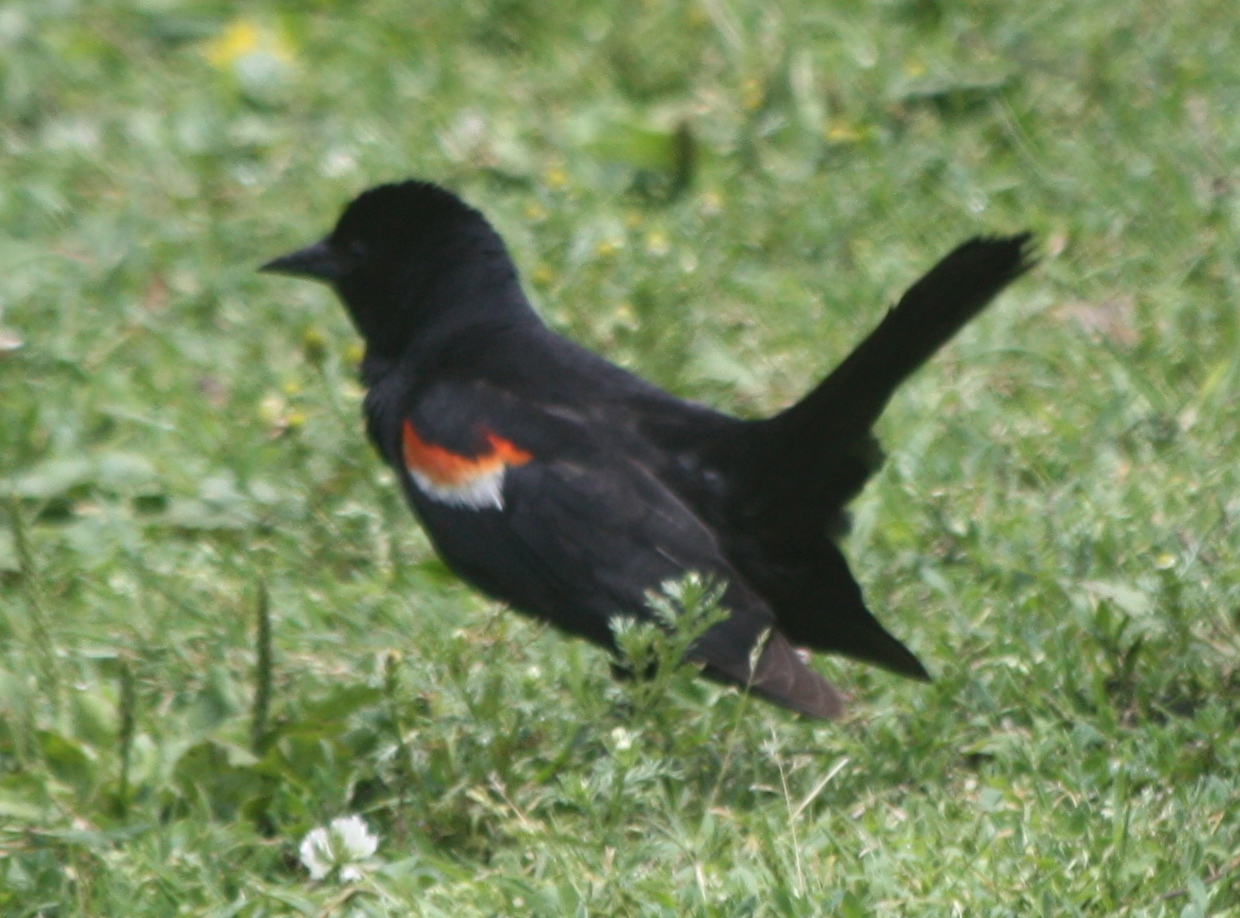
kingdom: Animalia
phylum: Chordata
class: Aves
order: Passeriformes
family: Icteridae
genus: Agelaius
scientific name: Agelaius phoeniceus
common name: Red-winged blackbird
